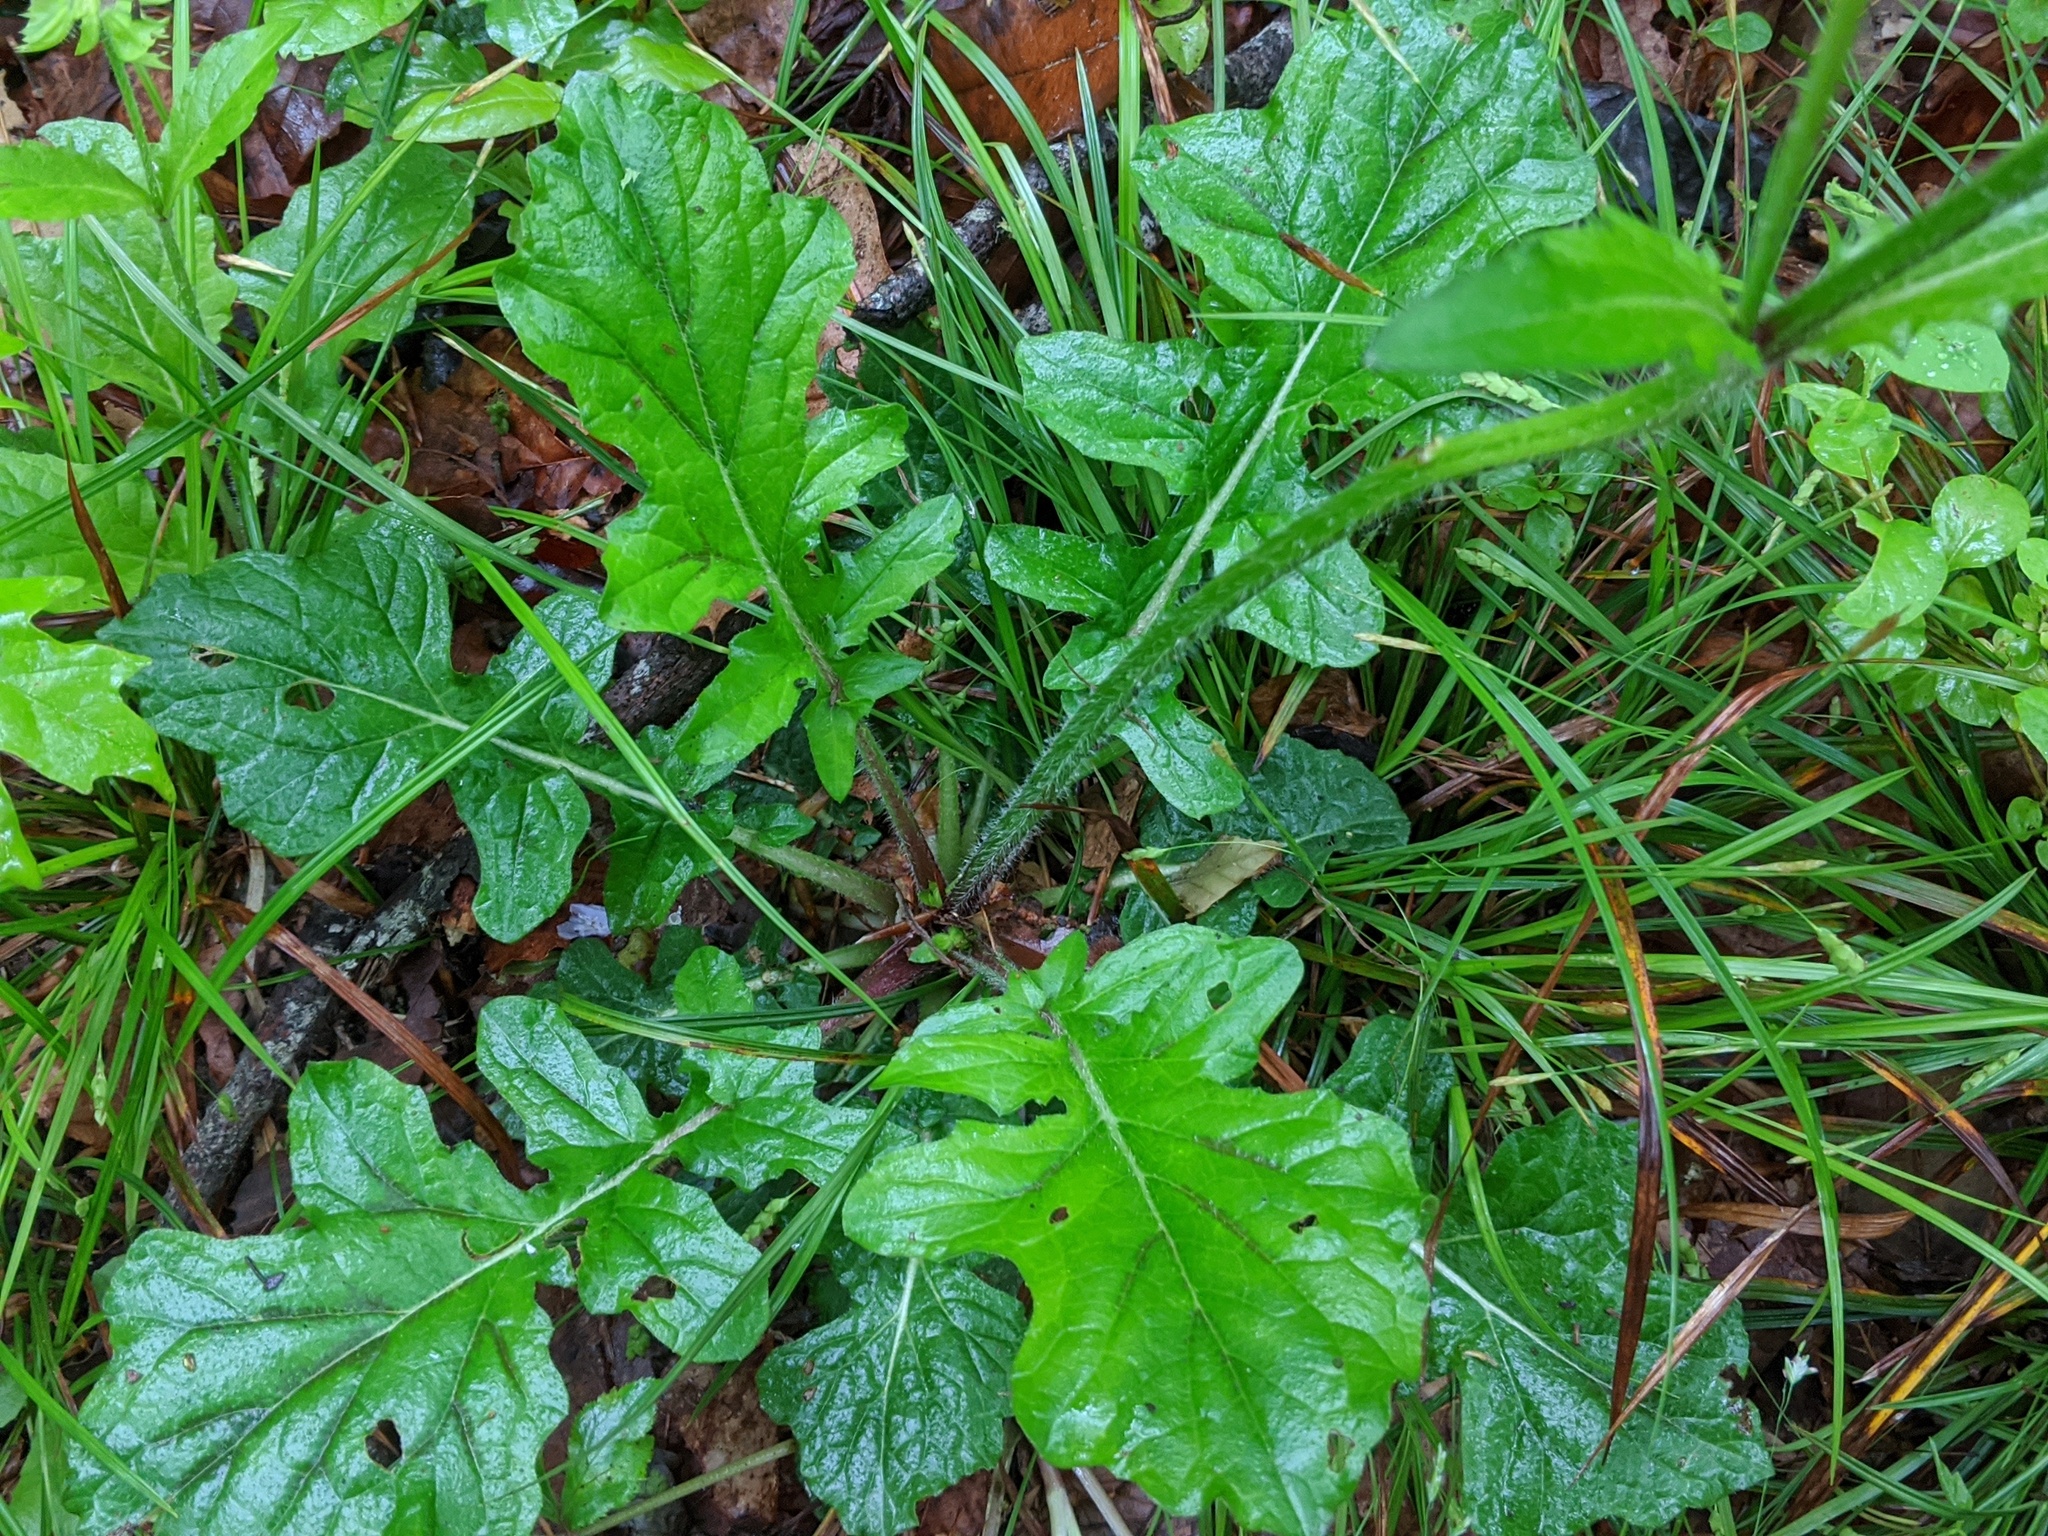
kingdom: Plantae
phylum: Tracheophyta
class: Magnoliopsida
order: Lamiales
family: Lamiaceae
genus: Salvia
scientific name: Salvia lyrata
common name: Cancerweed
